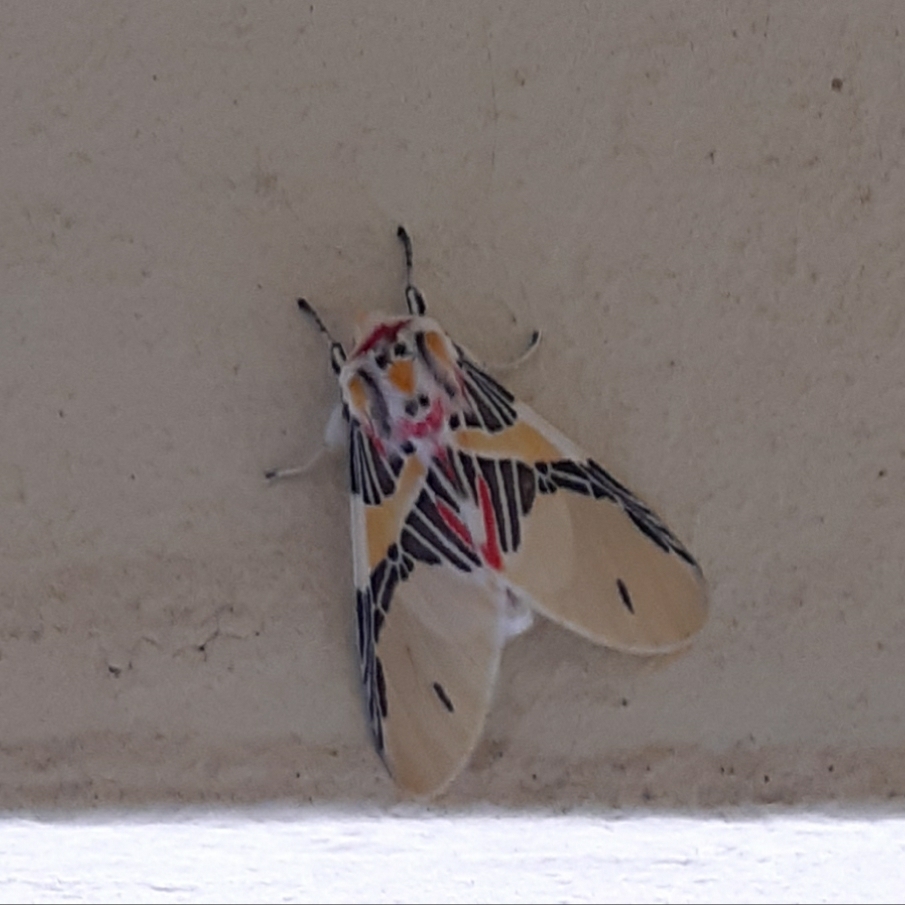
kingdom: Animalia
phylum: Arthropoda
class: Insecta
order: Lepidoptera
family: Erebidae
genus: Idalus
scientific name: Idalus agastus
